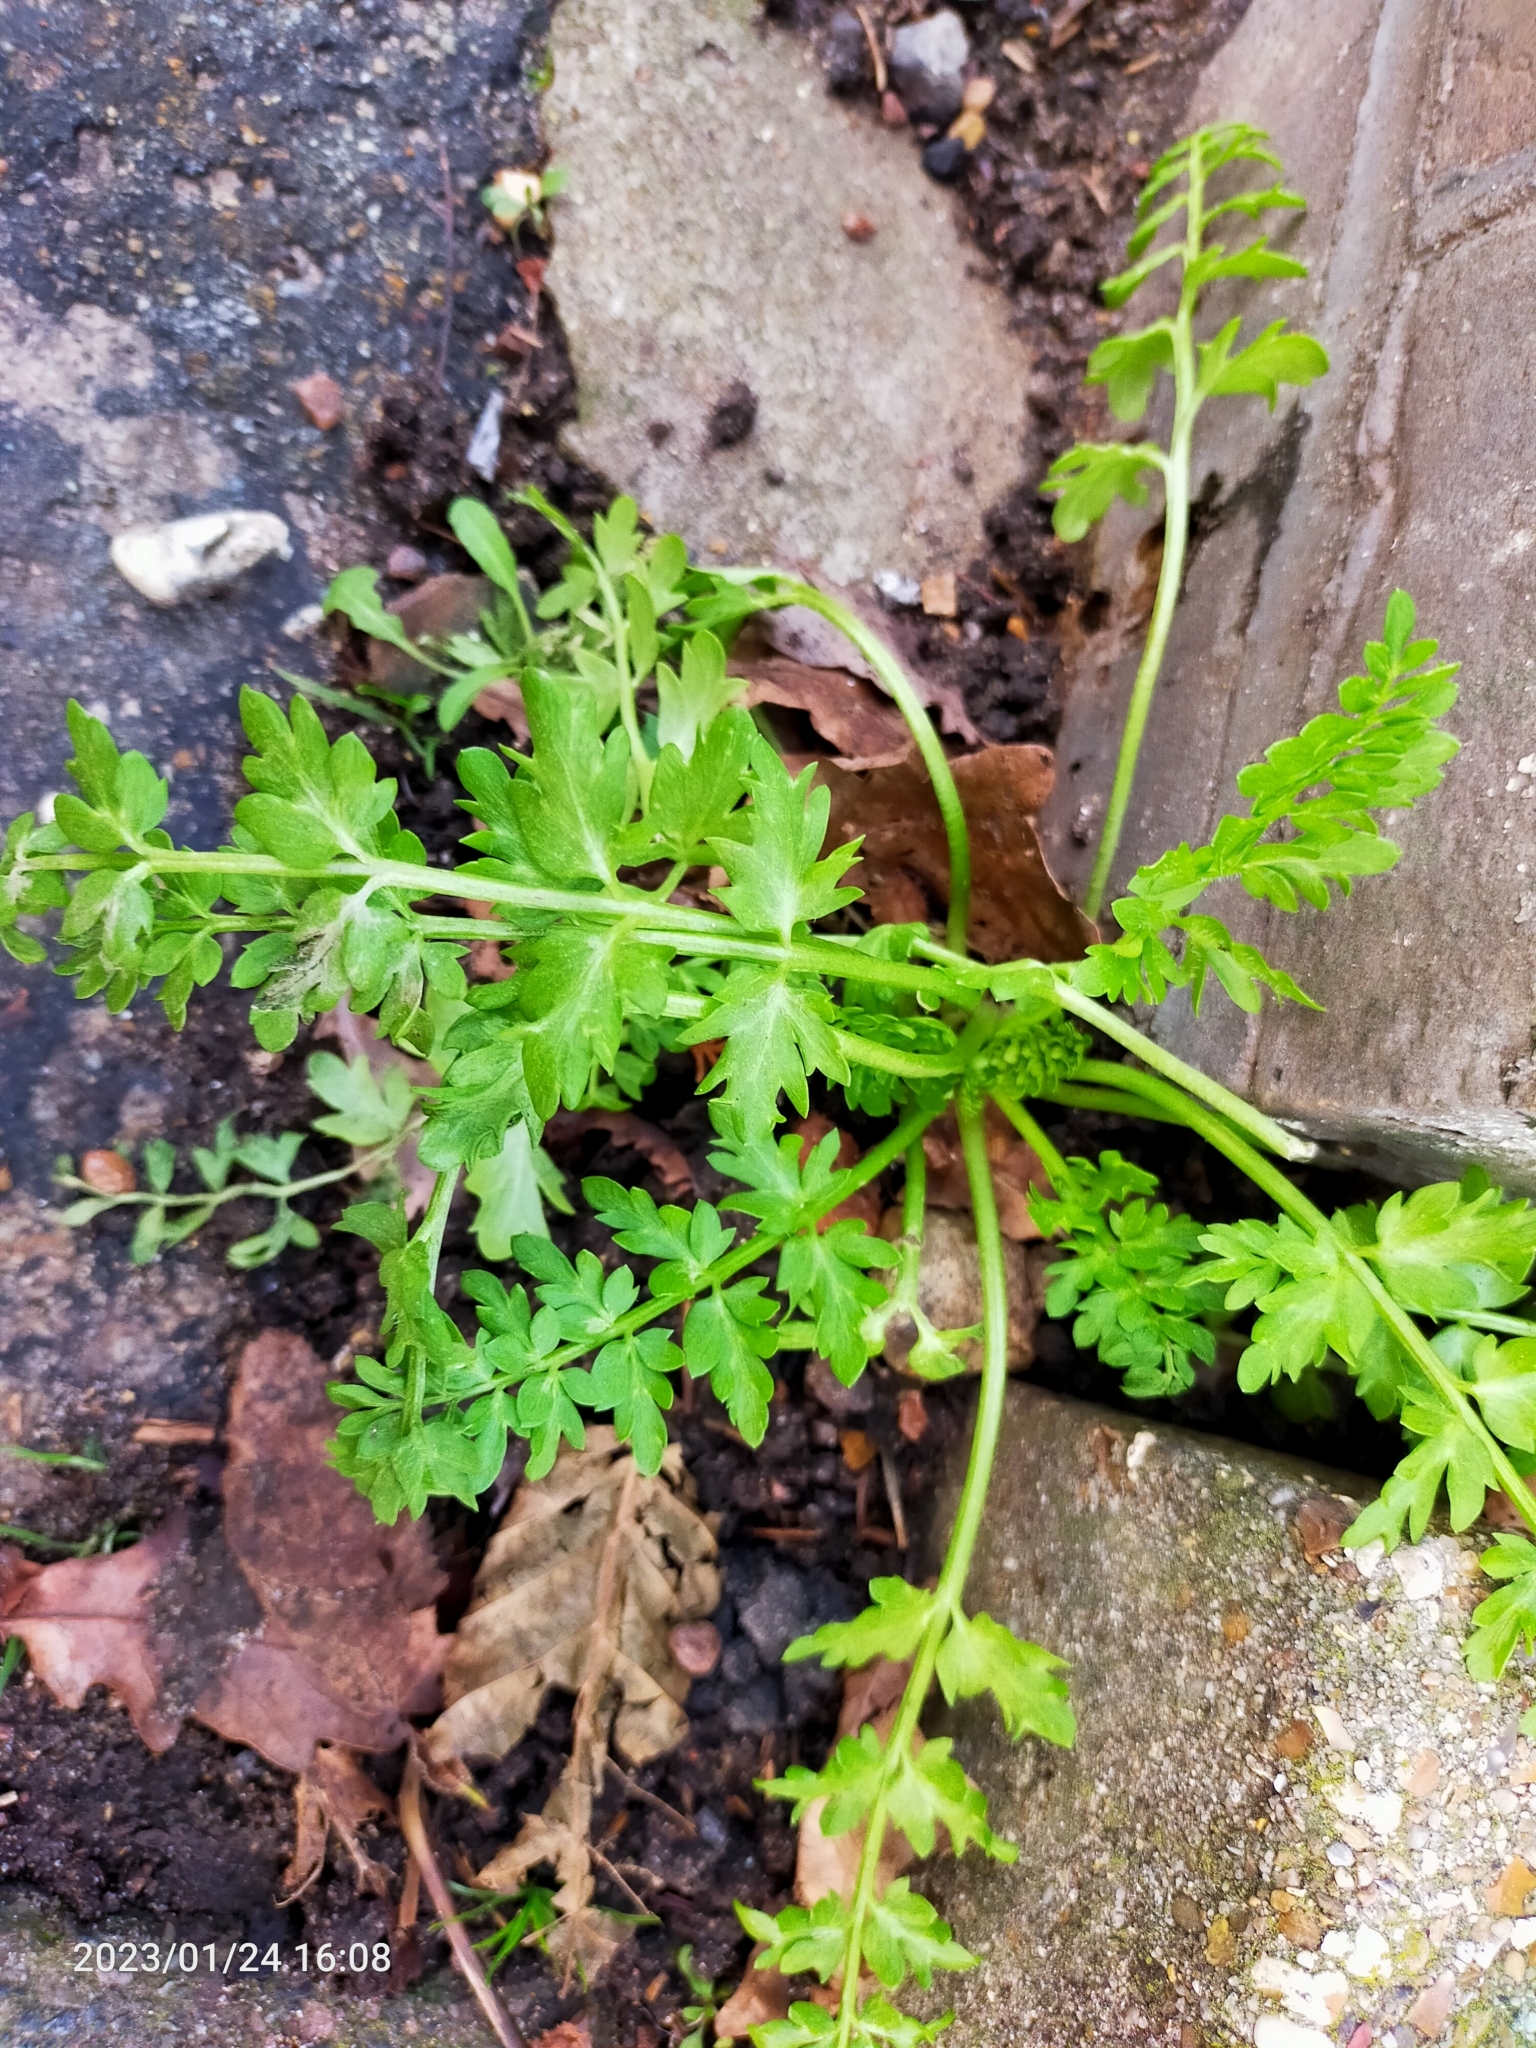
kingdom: Plantae
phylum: Tracheophyta
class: Magnoliopsida
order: Ranunculales
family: Papaveraceae
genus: Papaver
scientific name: Papaver cambricum
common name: Poppy
